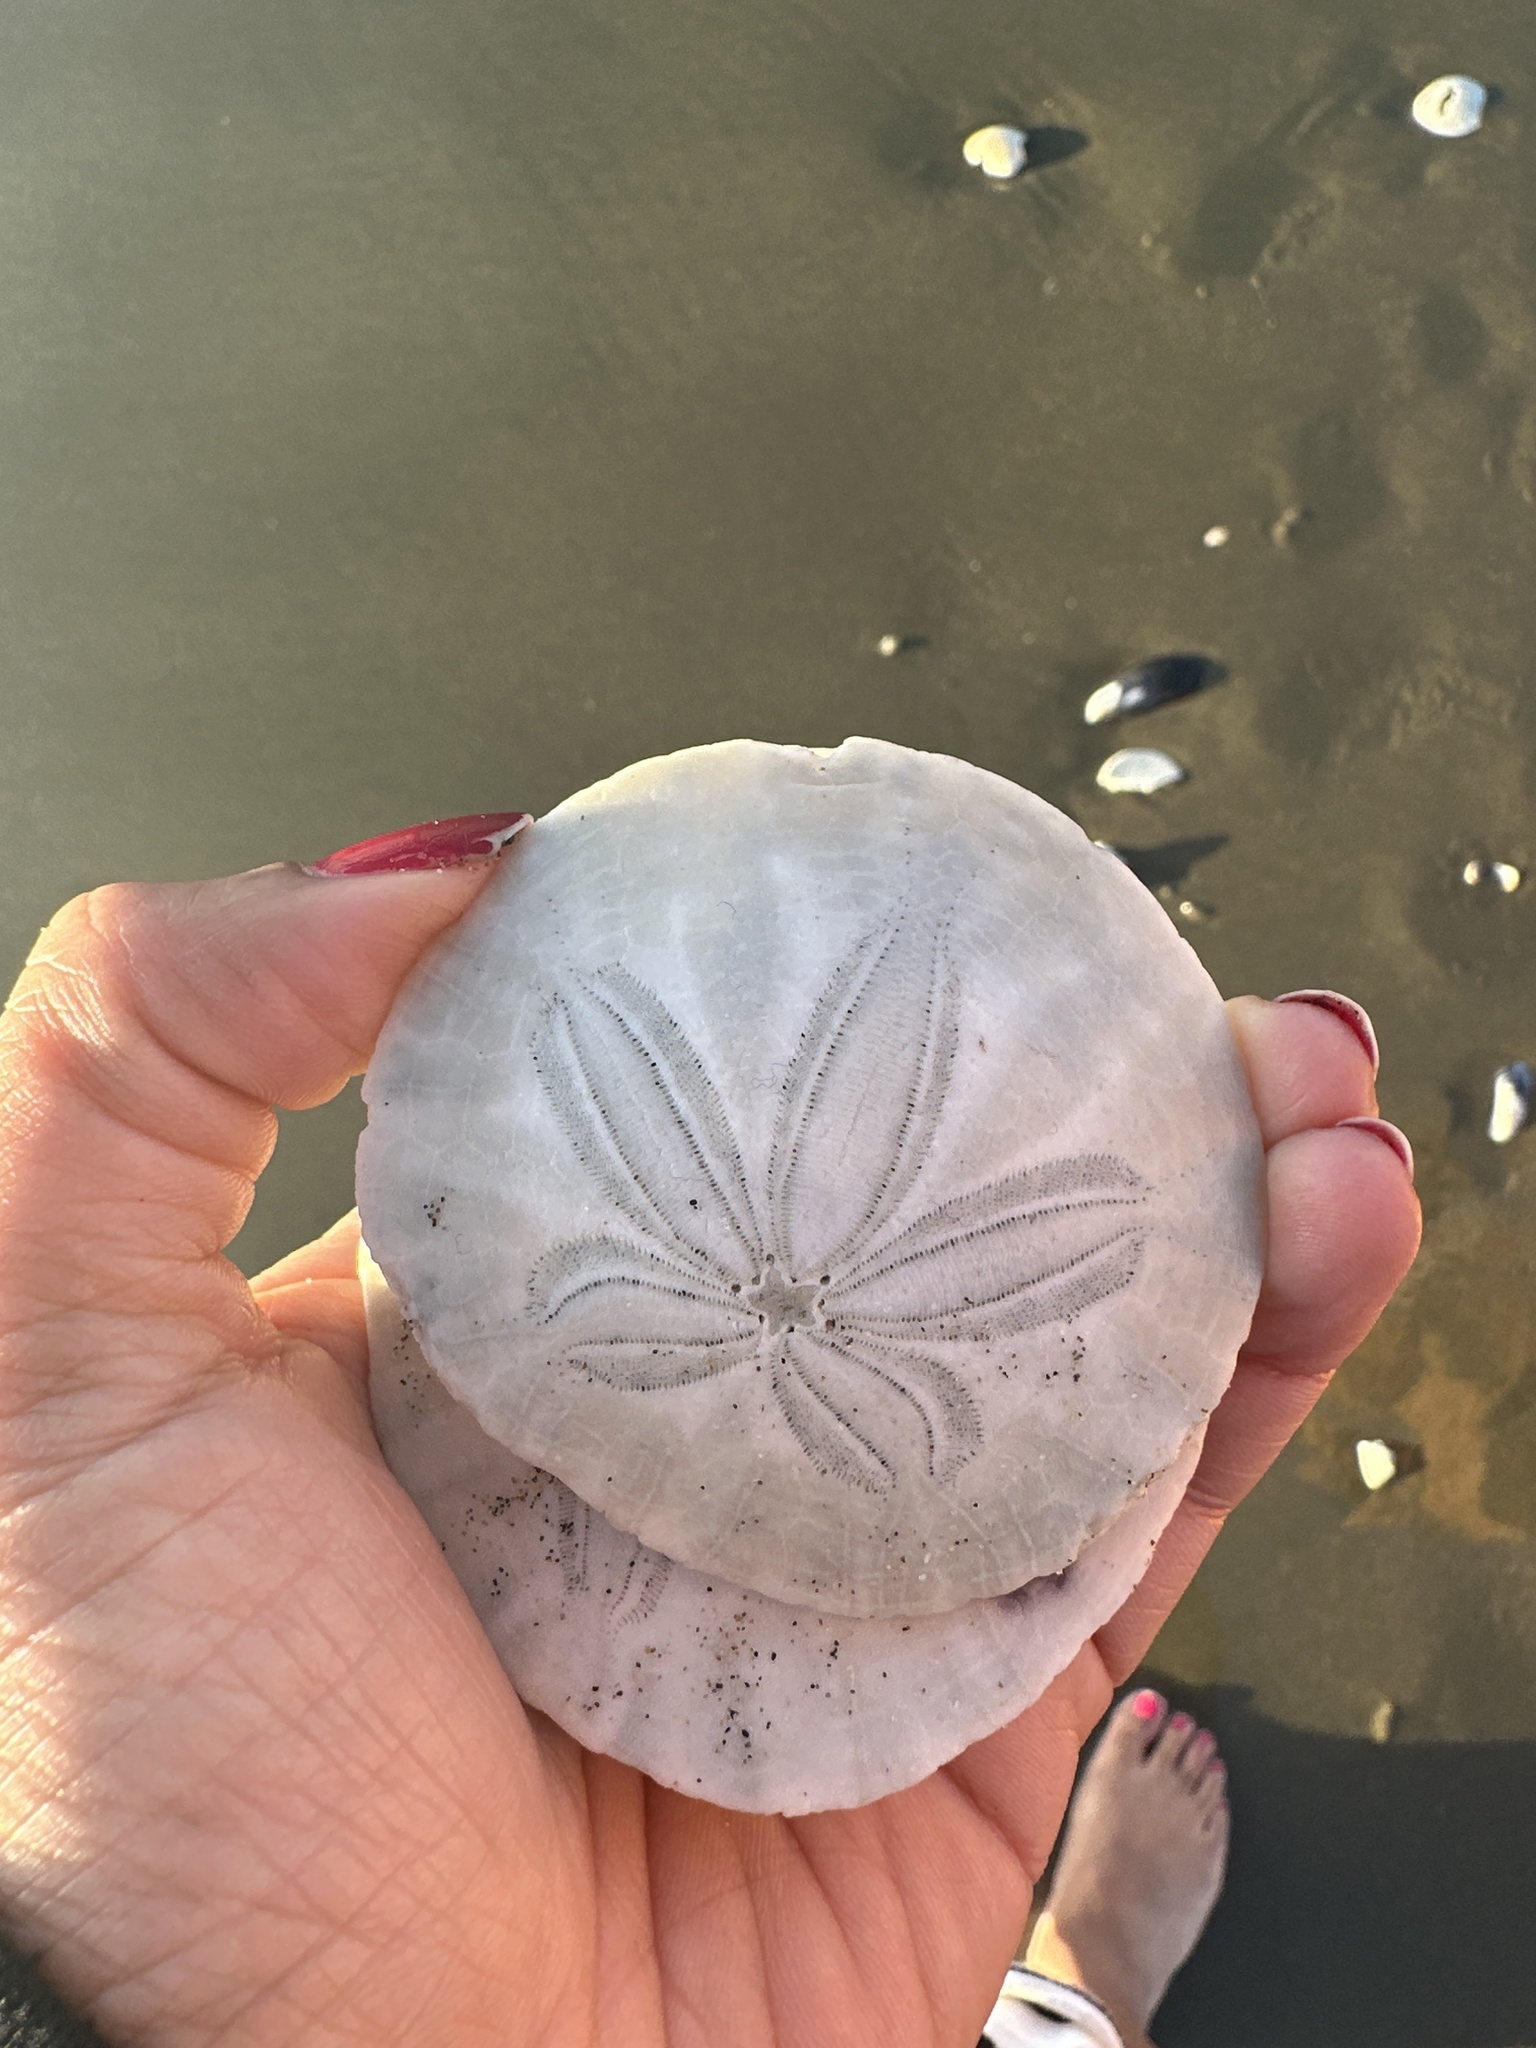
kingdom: Animalia
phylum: Echinodermata
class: Echinoidea
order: Echinolampadacea
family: Dendrasteridae
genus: Dendraster
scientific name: Dendraster excentricus
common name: Eccentric sand dollar sea urchin
